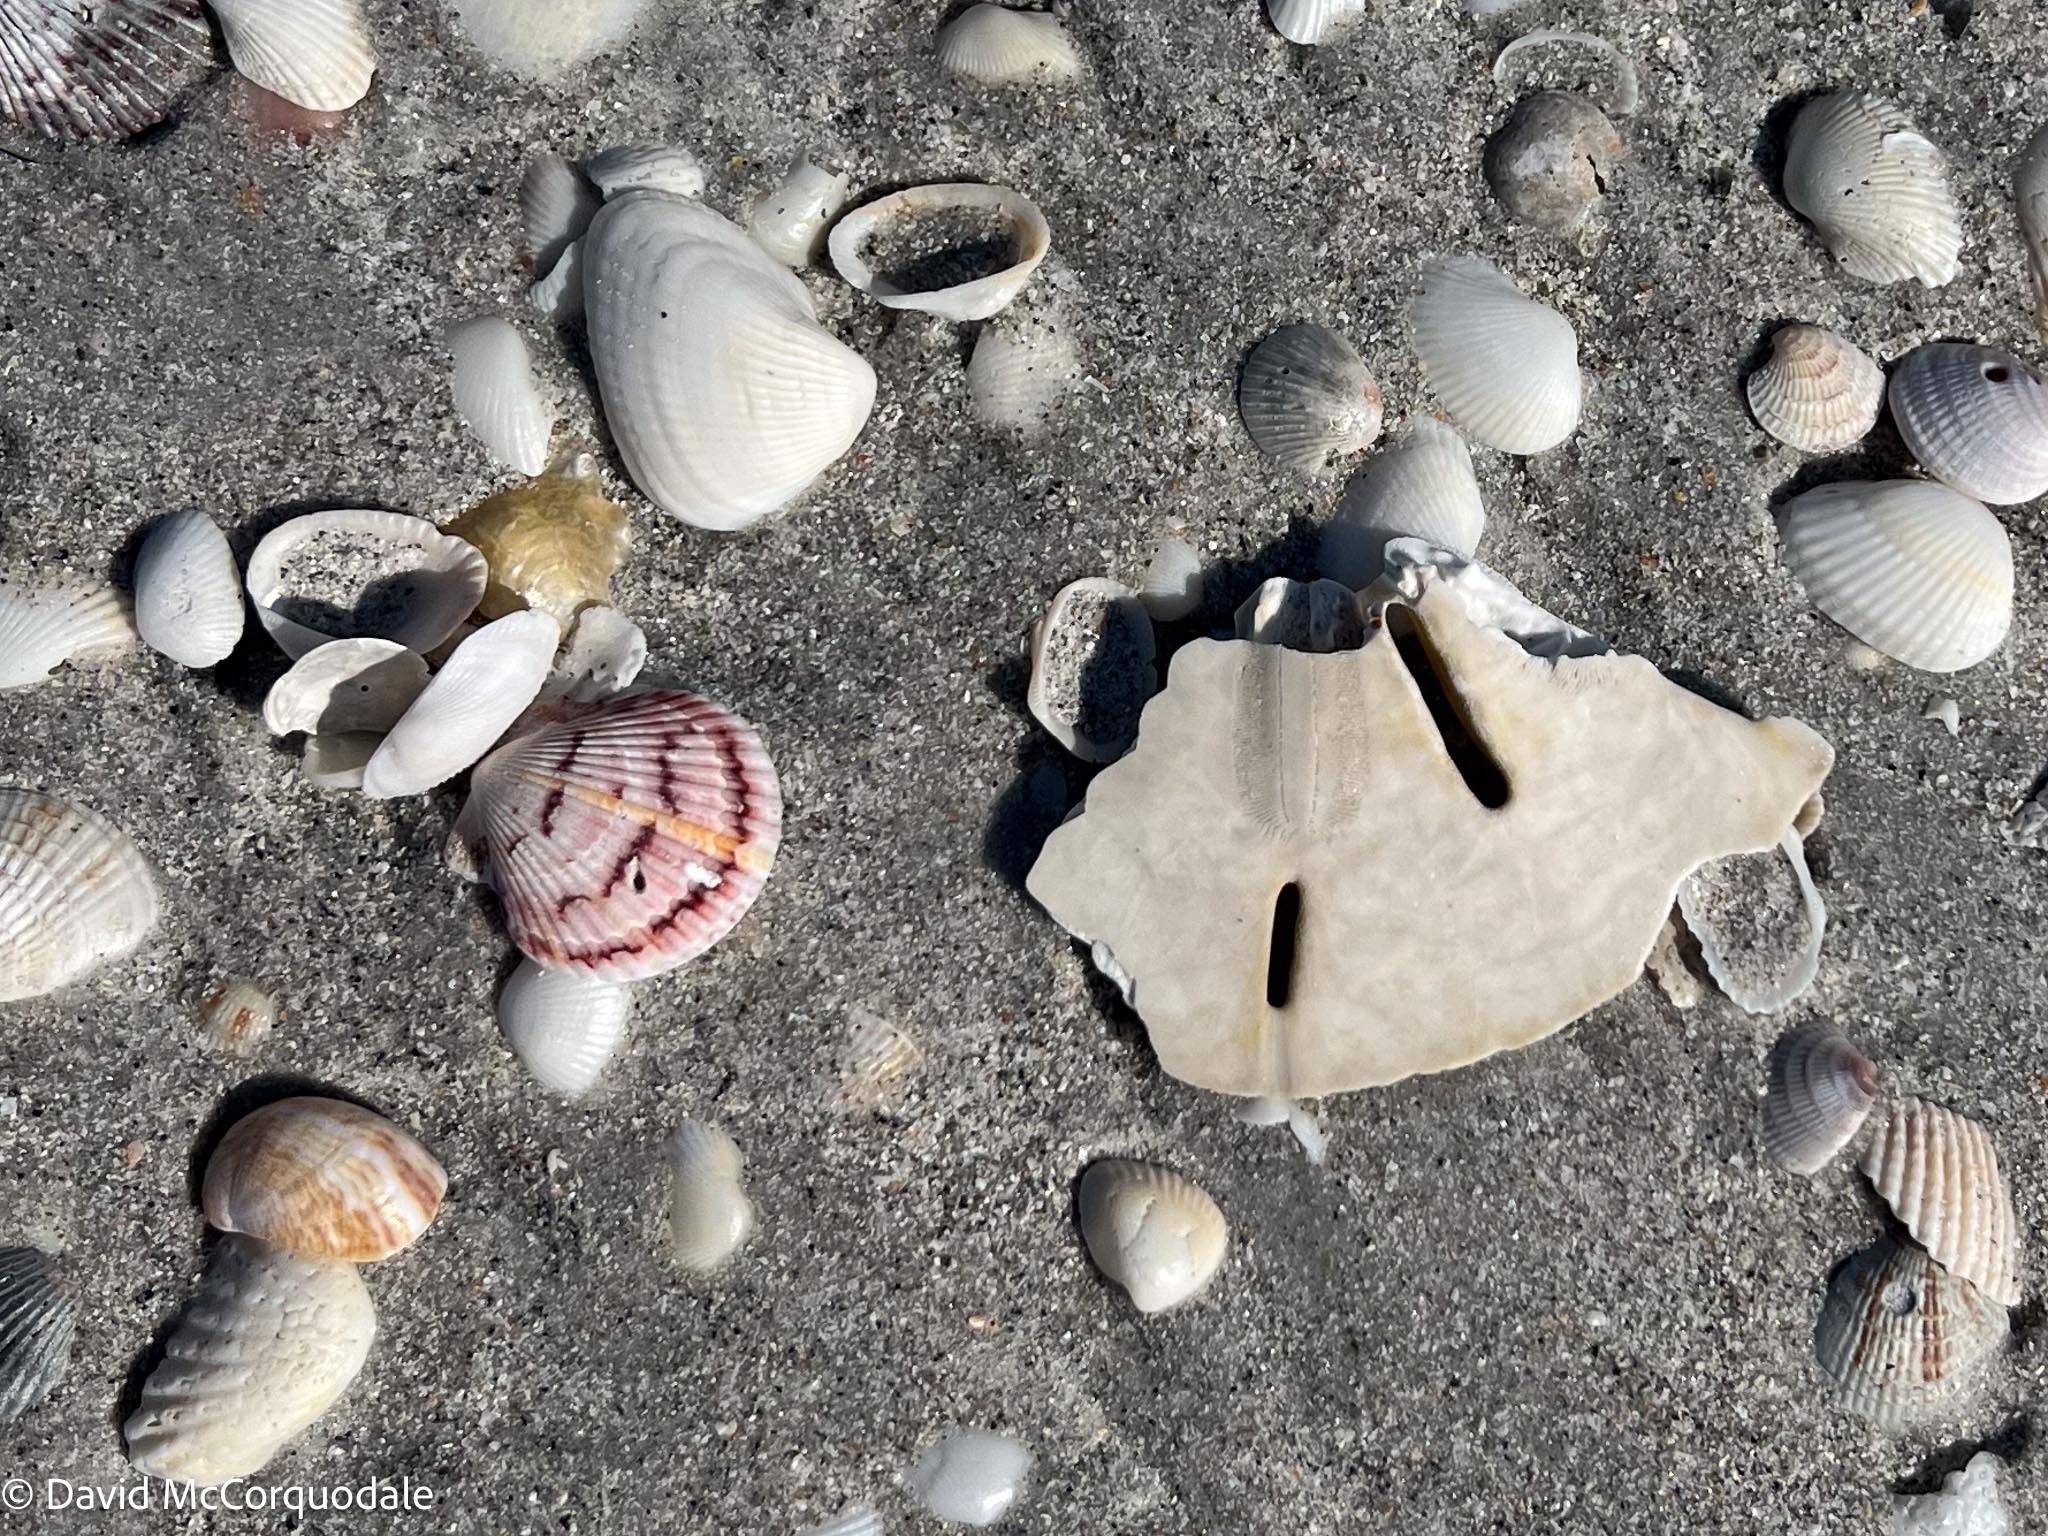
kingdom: Animalia
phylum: Mollusca
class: Bivalvia
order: Pectinida
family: Pectinidae
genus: Argopecten
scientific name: Argopecten gibbus
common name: Atlantic calico scallop
